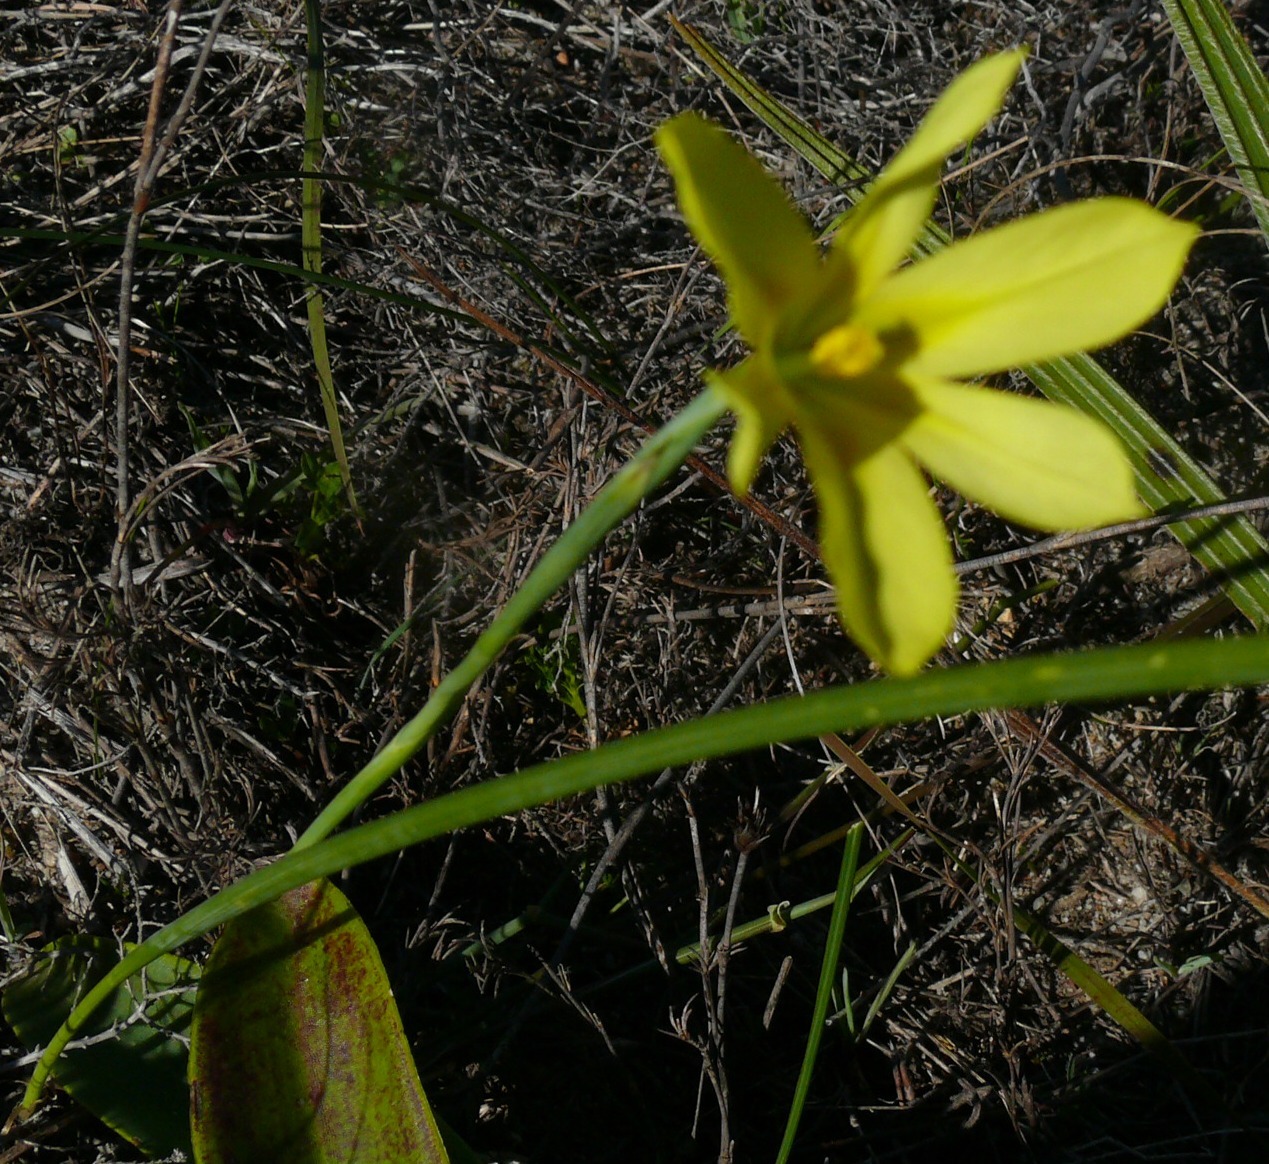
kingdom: Plantae
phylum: Tracheophyta
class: Liliopsida
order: Asparagales
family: Iridaceae
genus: Moraea
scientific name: Moraea collina
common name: Cape-tulip
